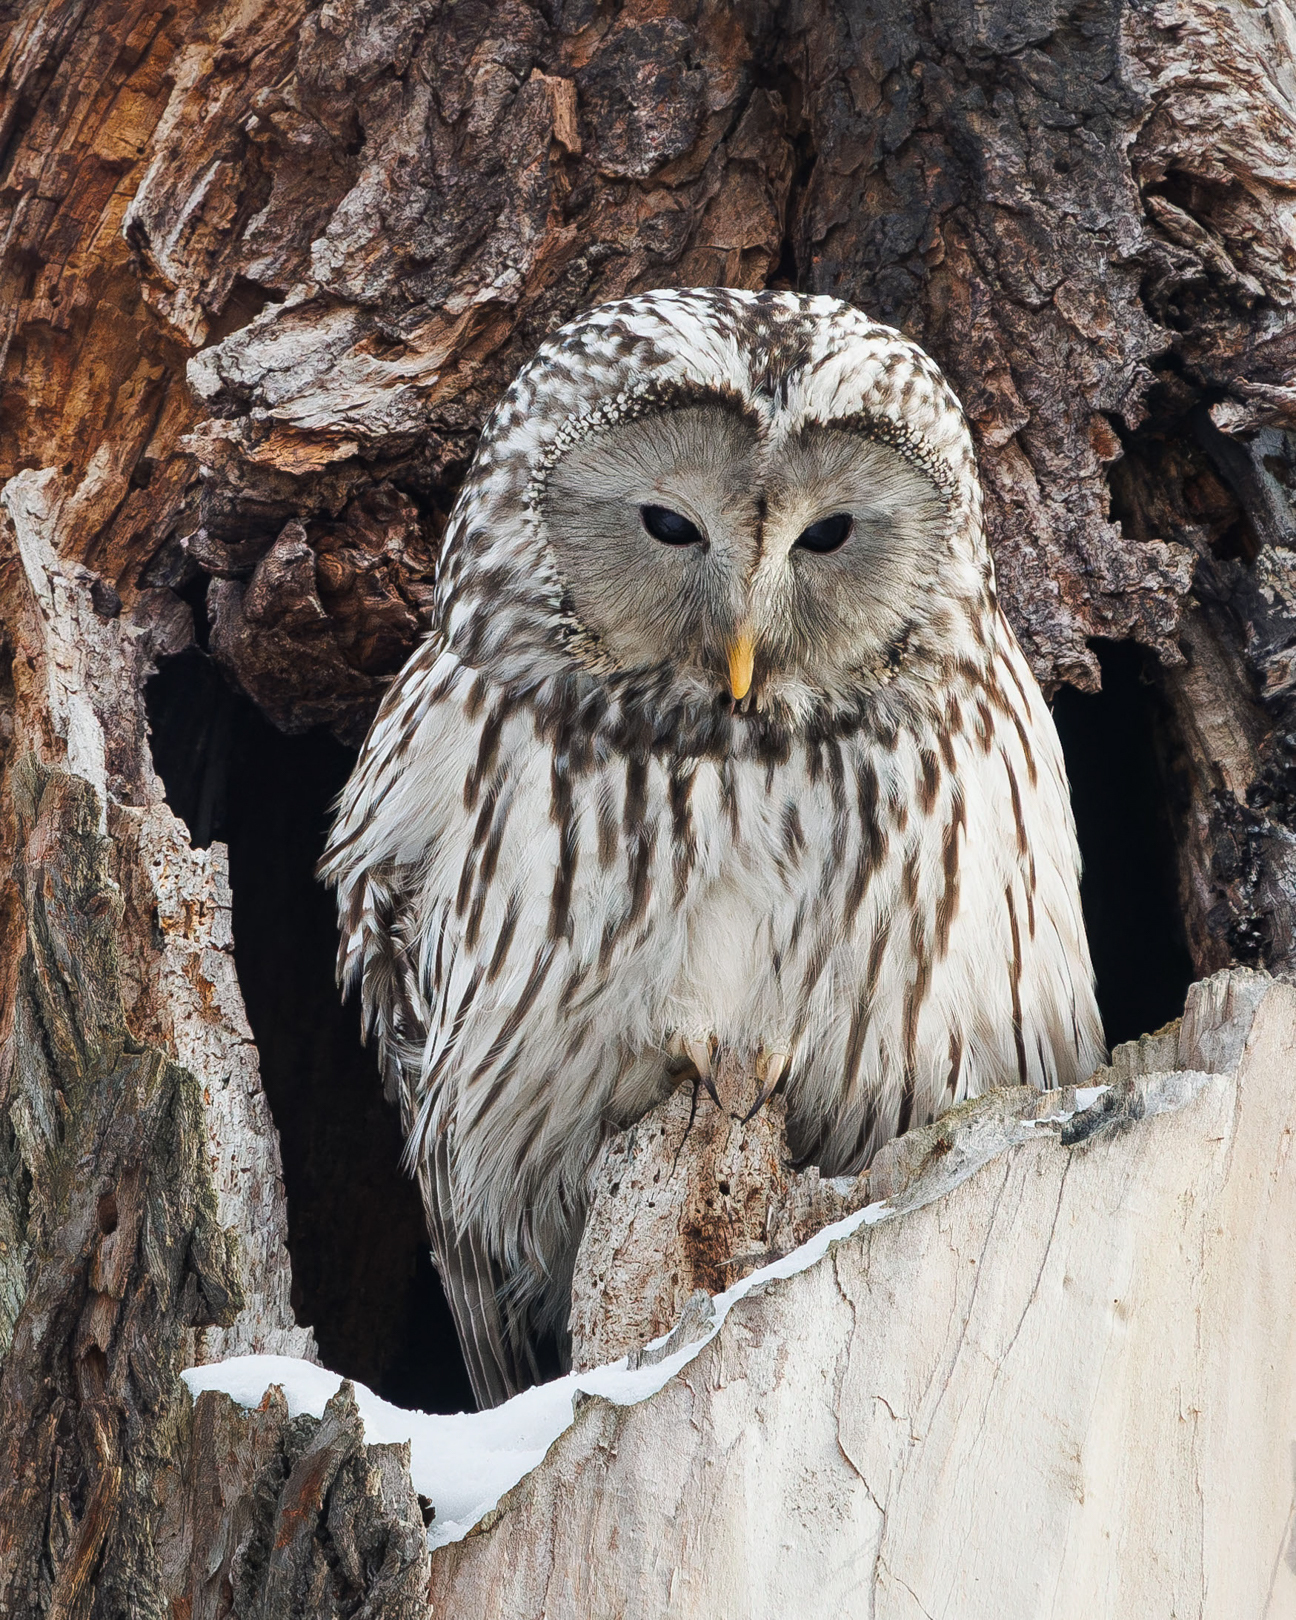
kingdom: Animalia
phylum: Chordata
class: Aves
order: Strigiformes
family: Strigidae
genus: Strix
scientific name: Strix uralensis
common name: Ural owl
